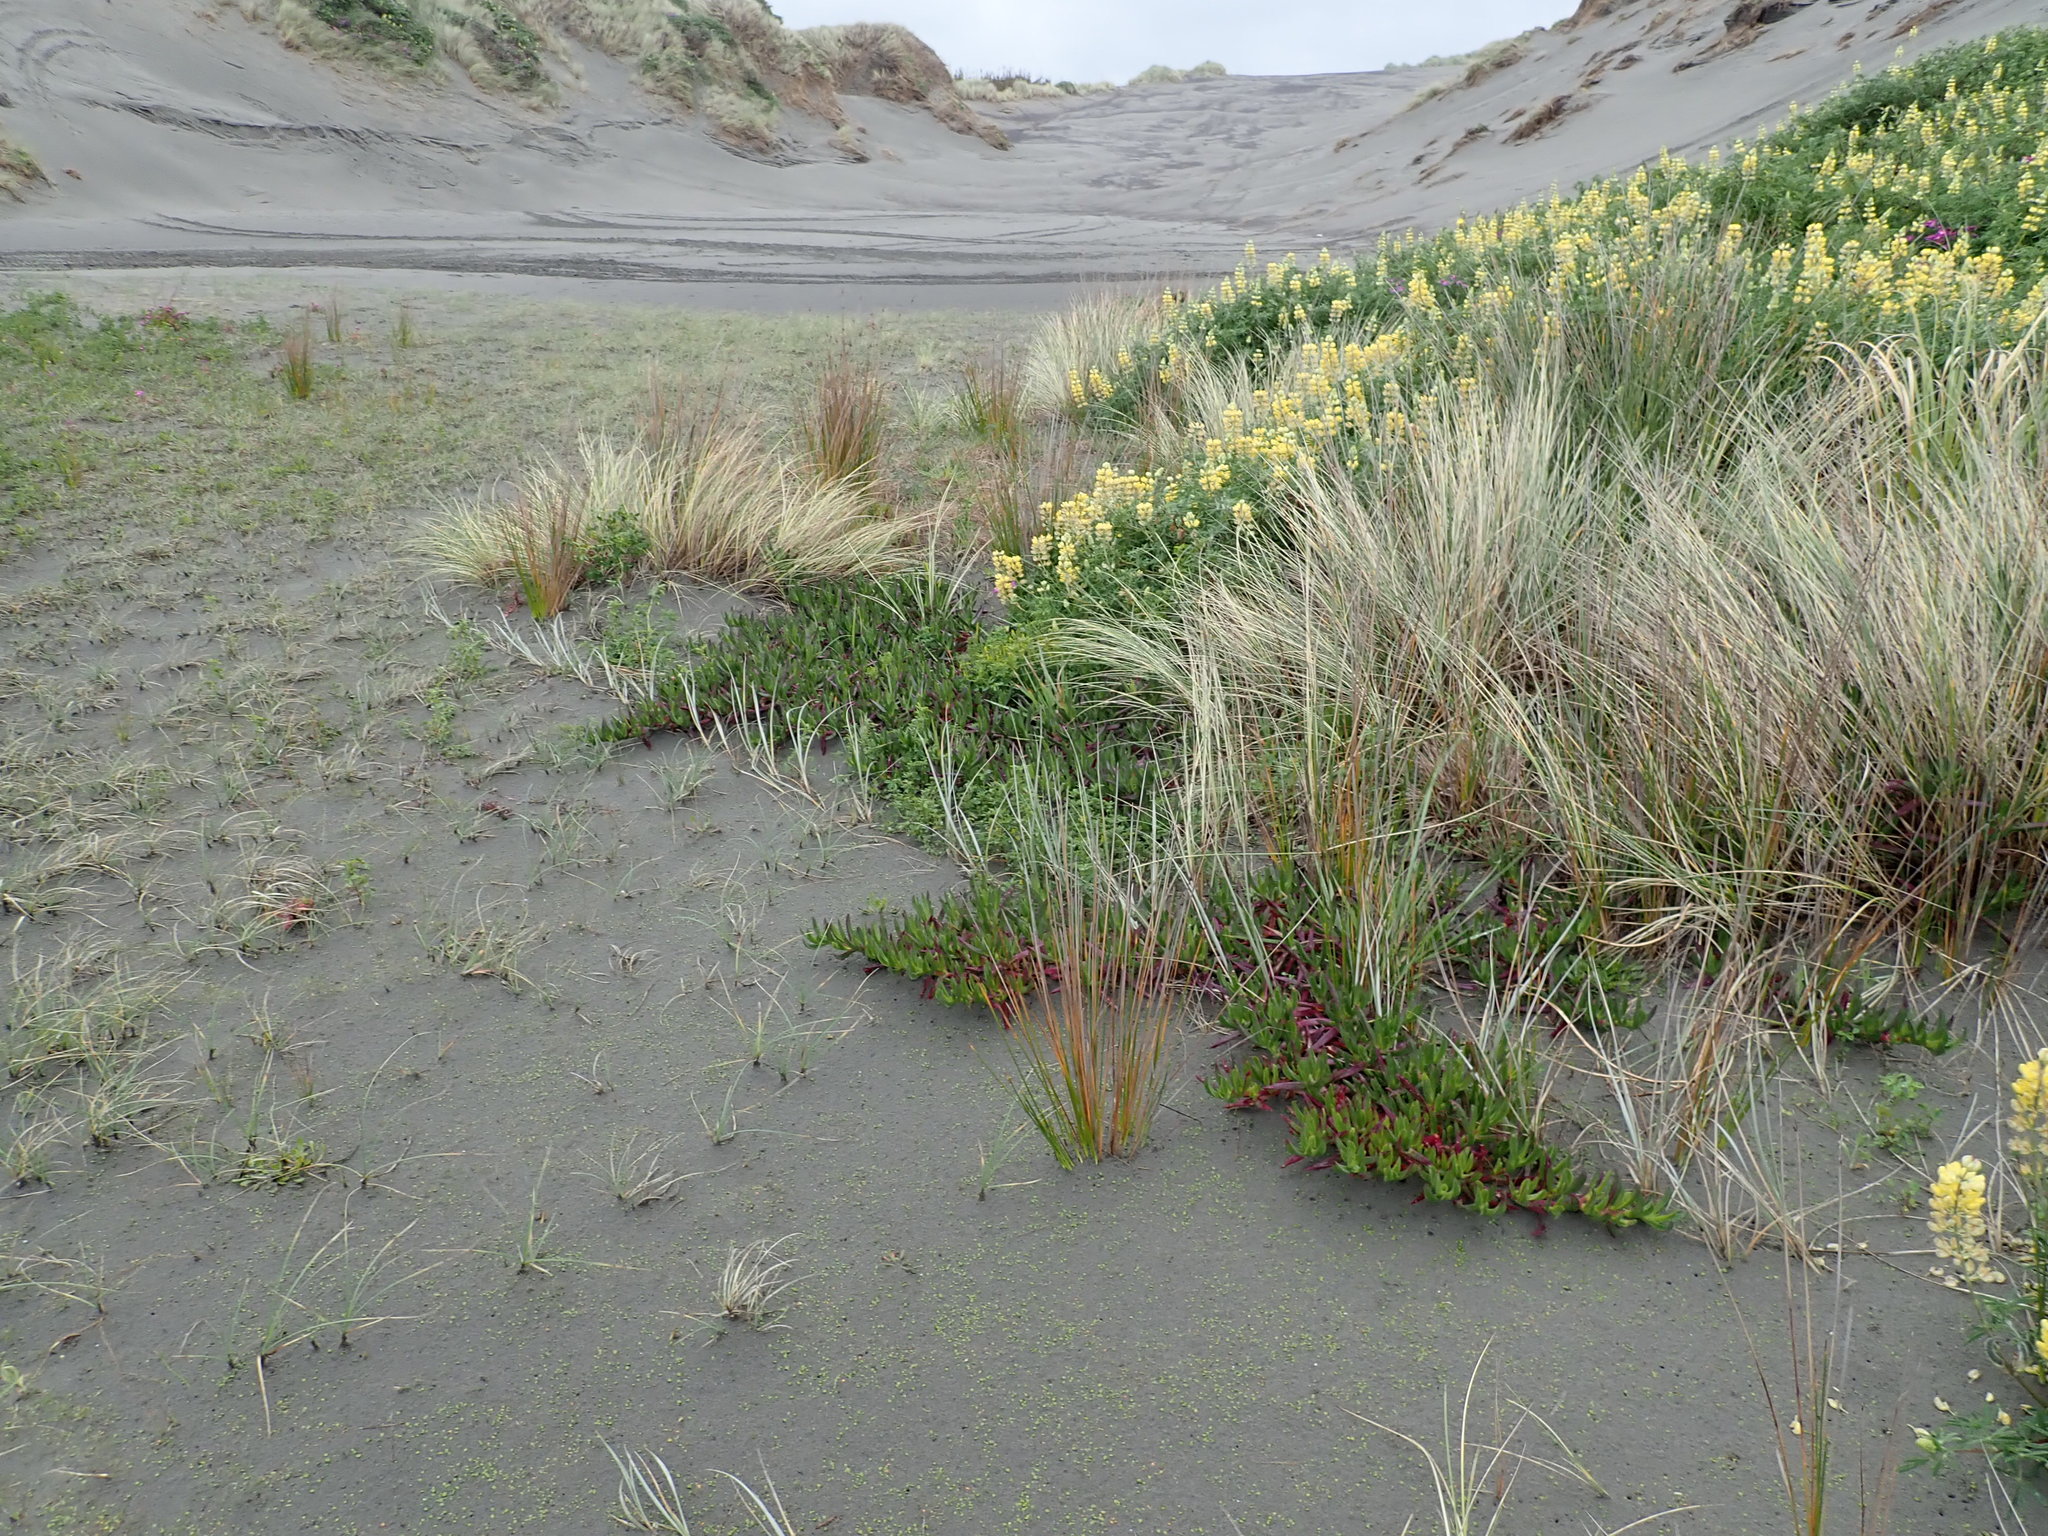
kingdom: Plantae
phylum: Tracheophyta
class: Magnoliopsida
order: Caryophyllales
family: Aizoaceae
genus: Carpobrotus
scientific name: Carpobrotus edulis
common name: Hottentot-fig
